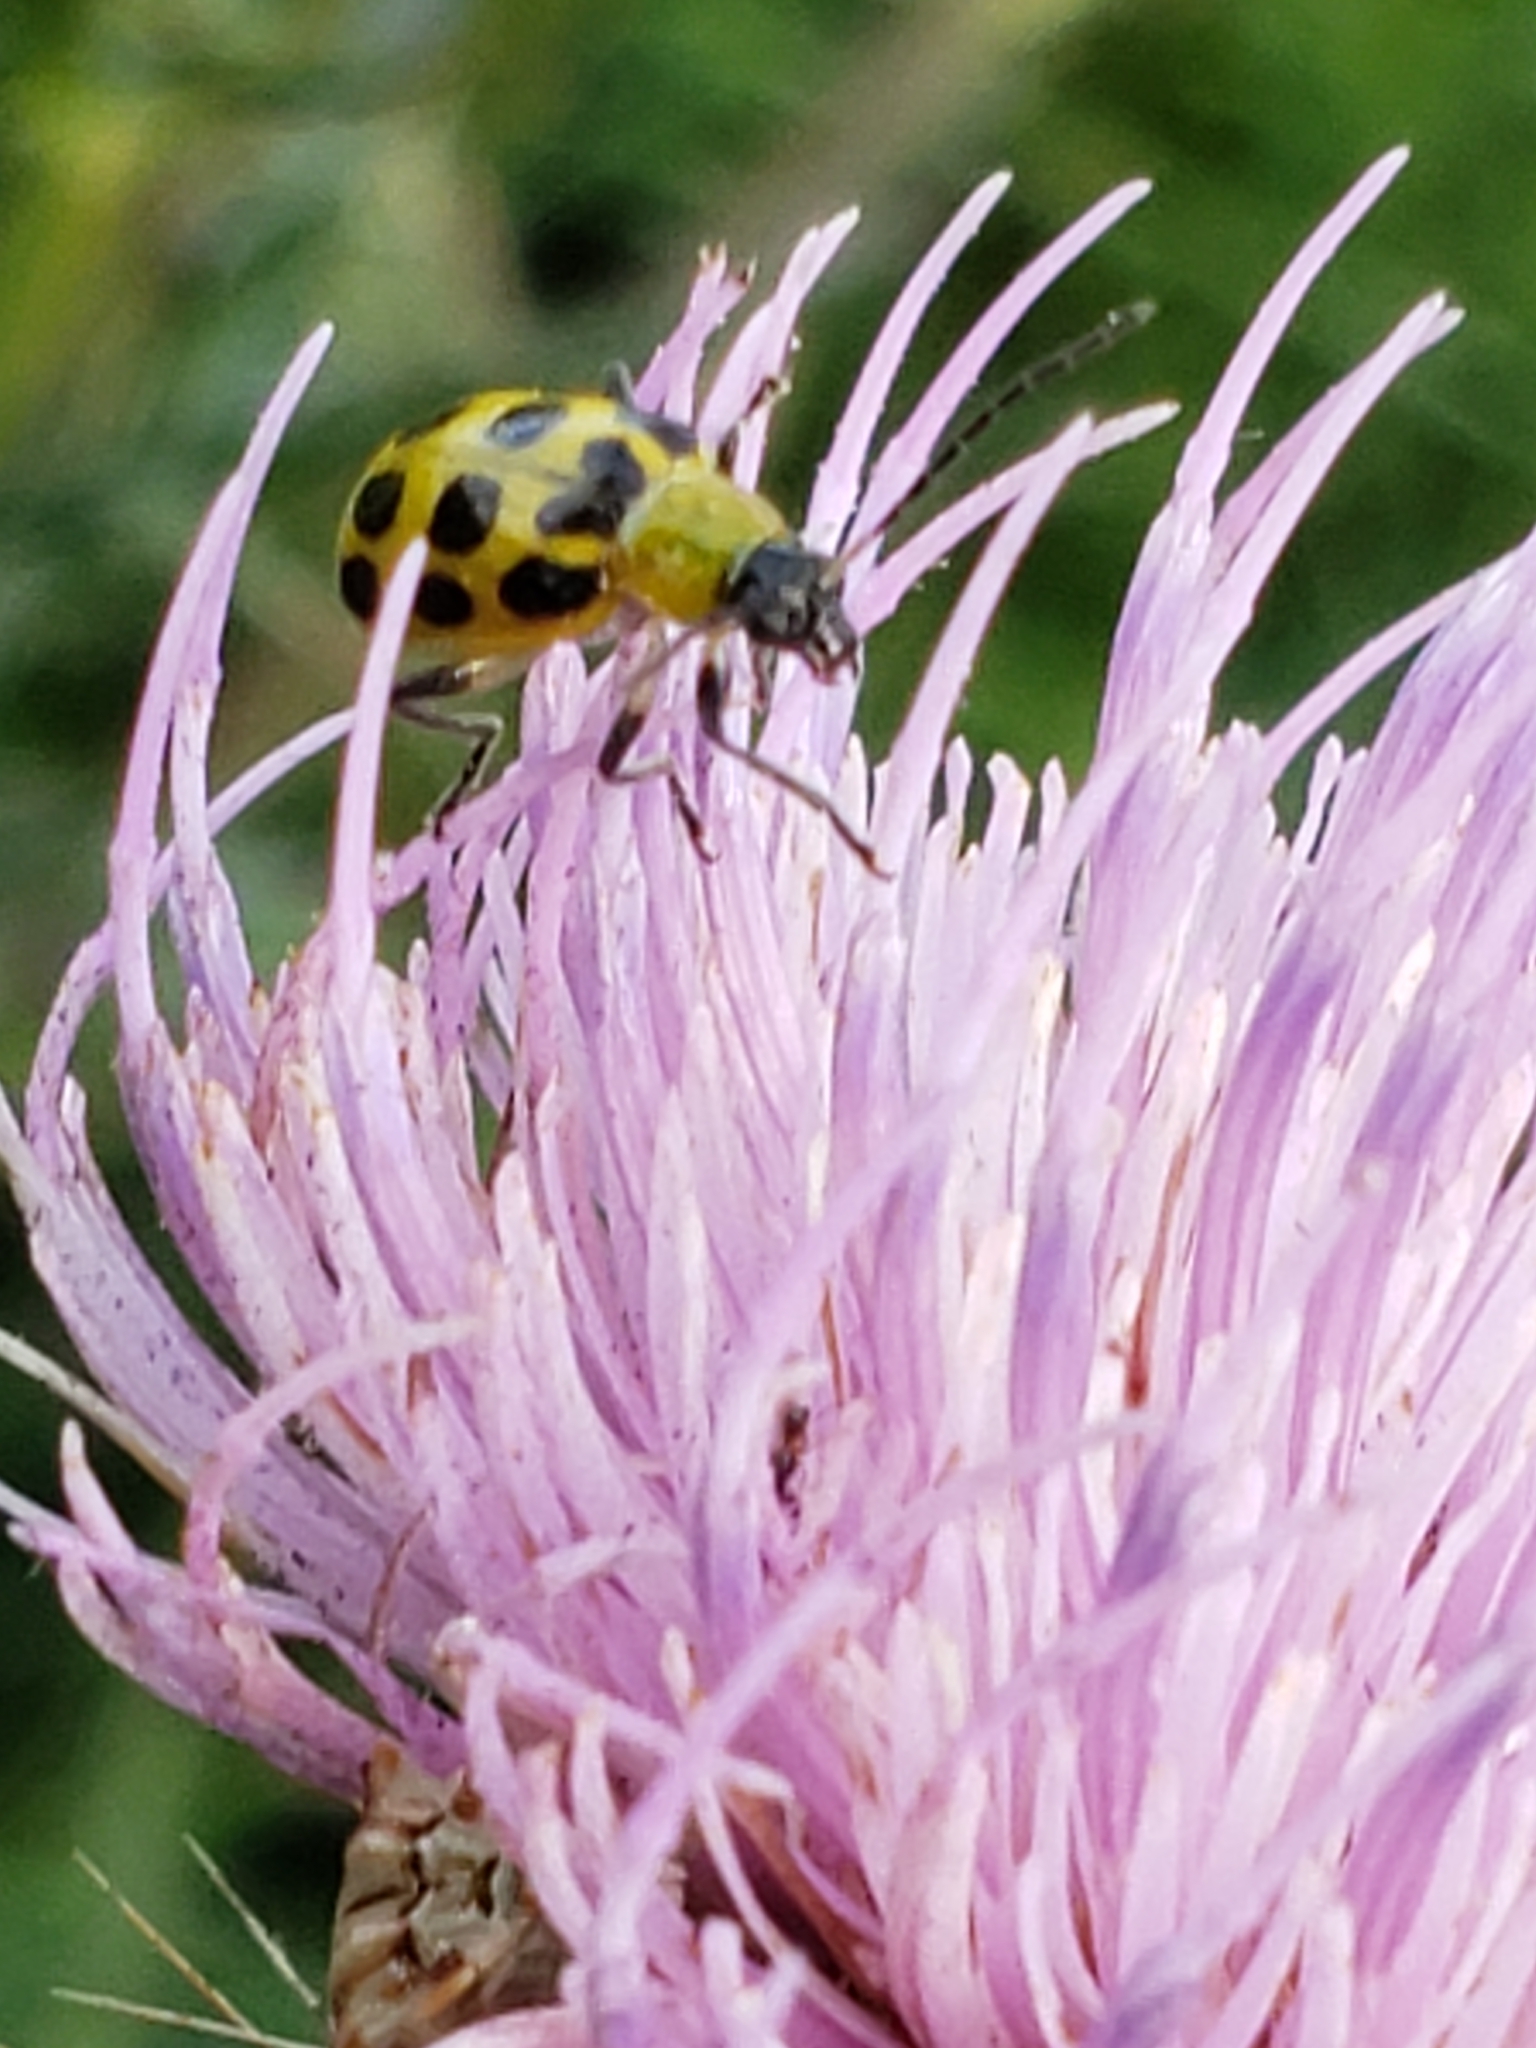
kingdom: Animalia
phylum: Arthropoda
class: Insecta
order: Coleoptera
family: Chrysomelidae
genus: Diabrotica
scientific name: Diabrotica undecimpunctata
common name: Spotted cucumber beetle
